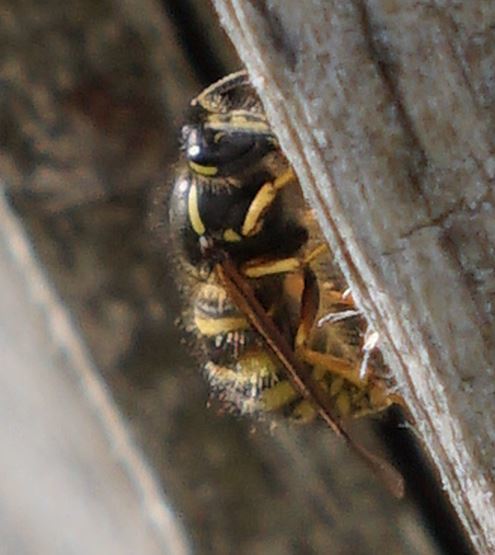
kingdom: Animalia
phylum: Arthropoda
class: Insecta
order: Hymenoptera
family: Vespidae
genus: Dolichovespula
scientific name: Dolichovespula saxonica
